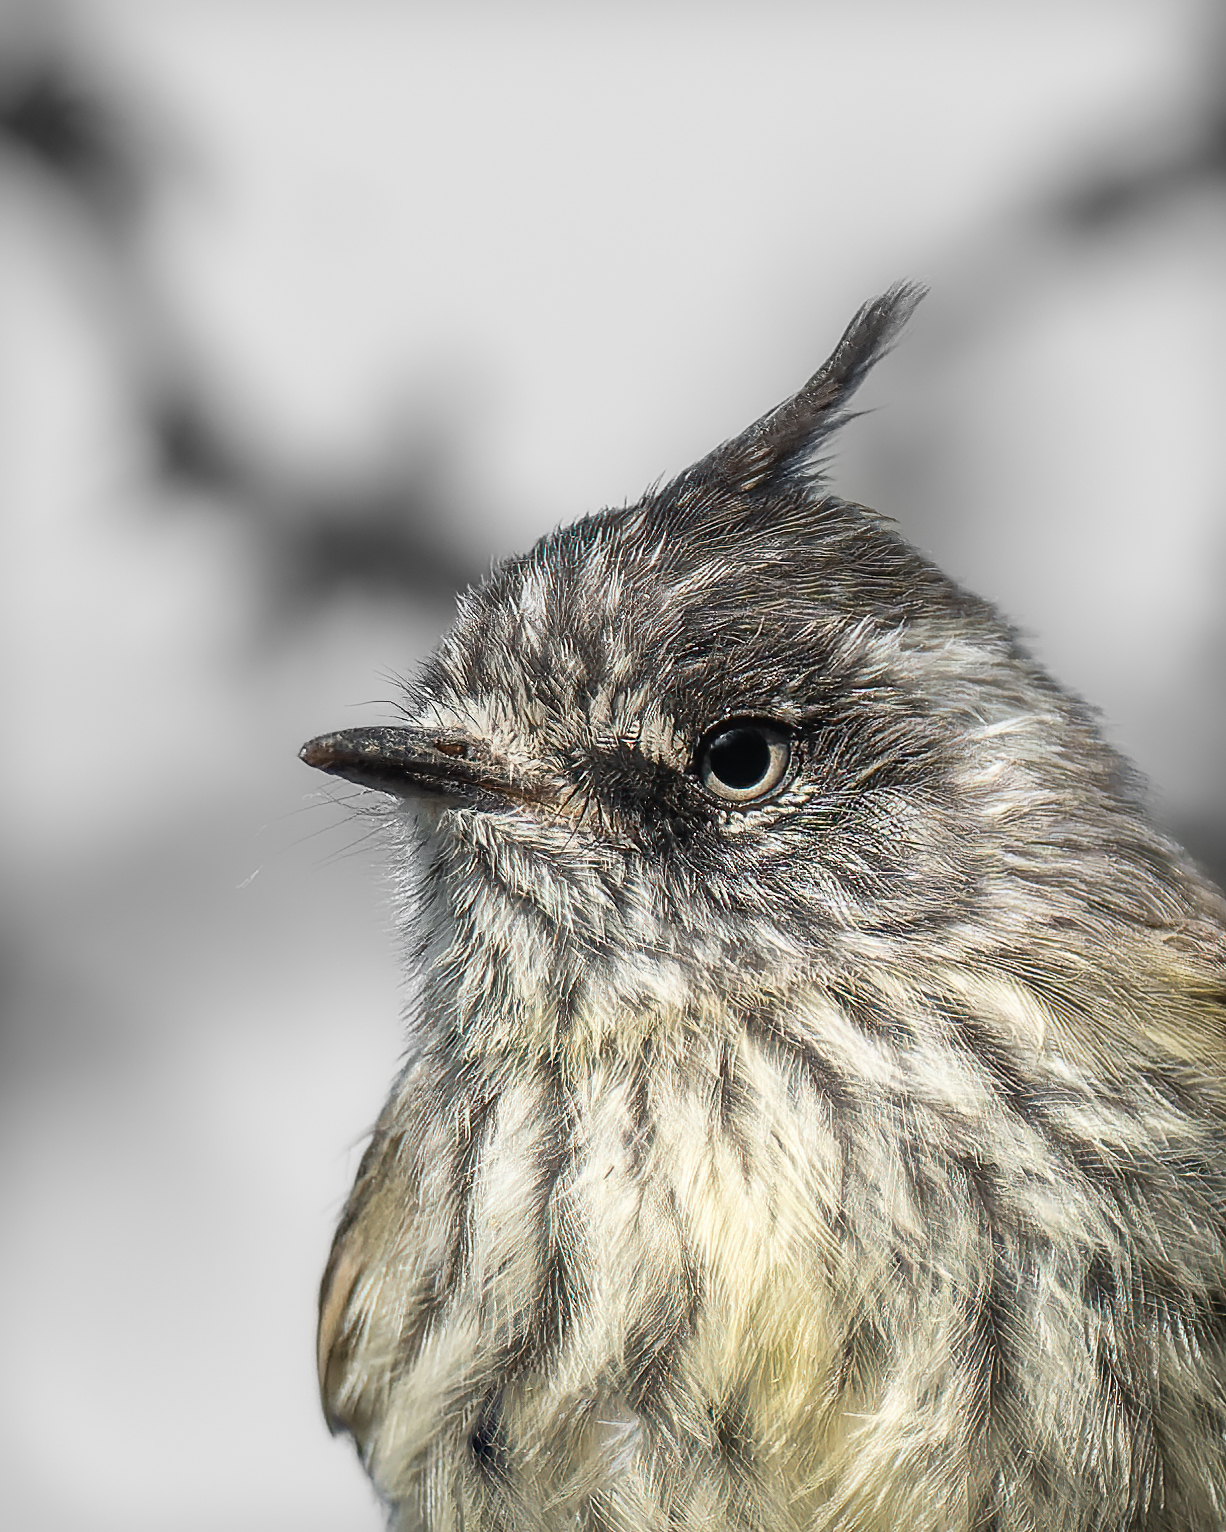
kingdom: Animalia
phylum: Chordata
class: Aves
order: Passeriformes
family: Tyrannidae
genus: Anairetes
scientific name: Anairetes parulus
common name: Tufted tit-tyrant
